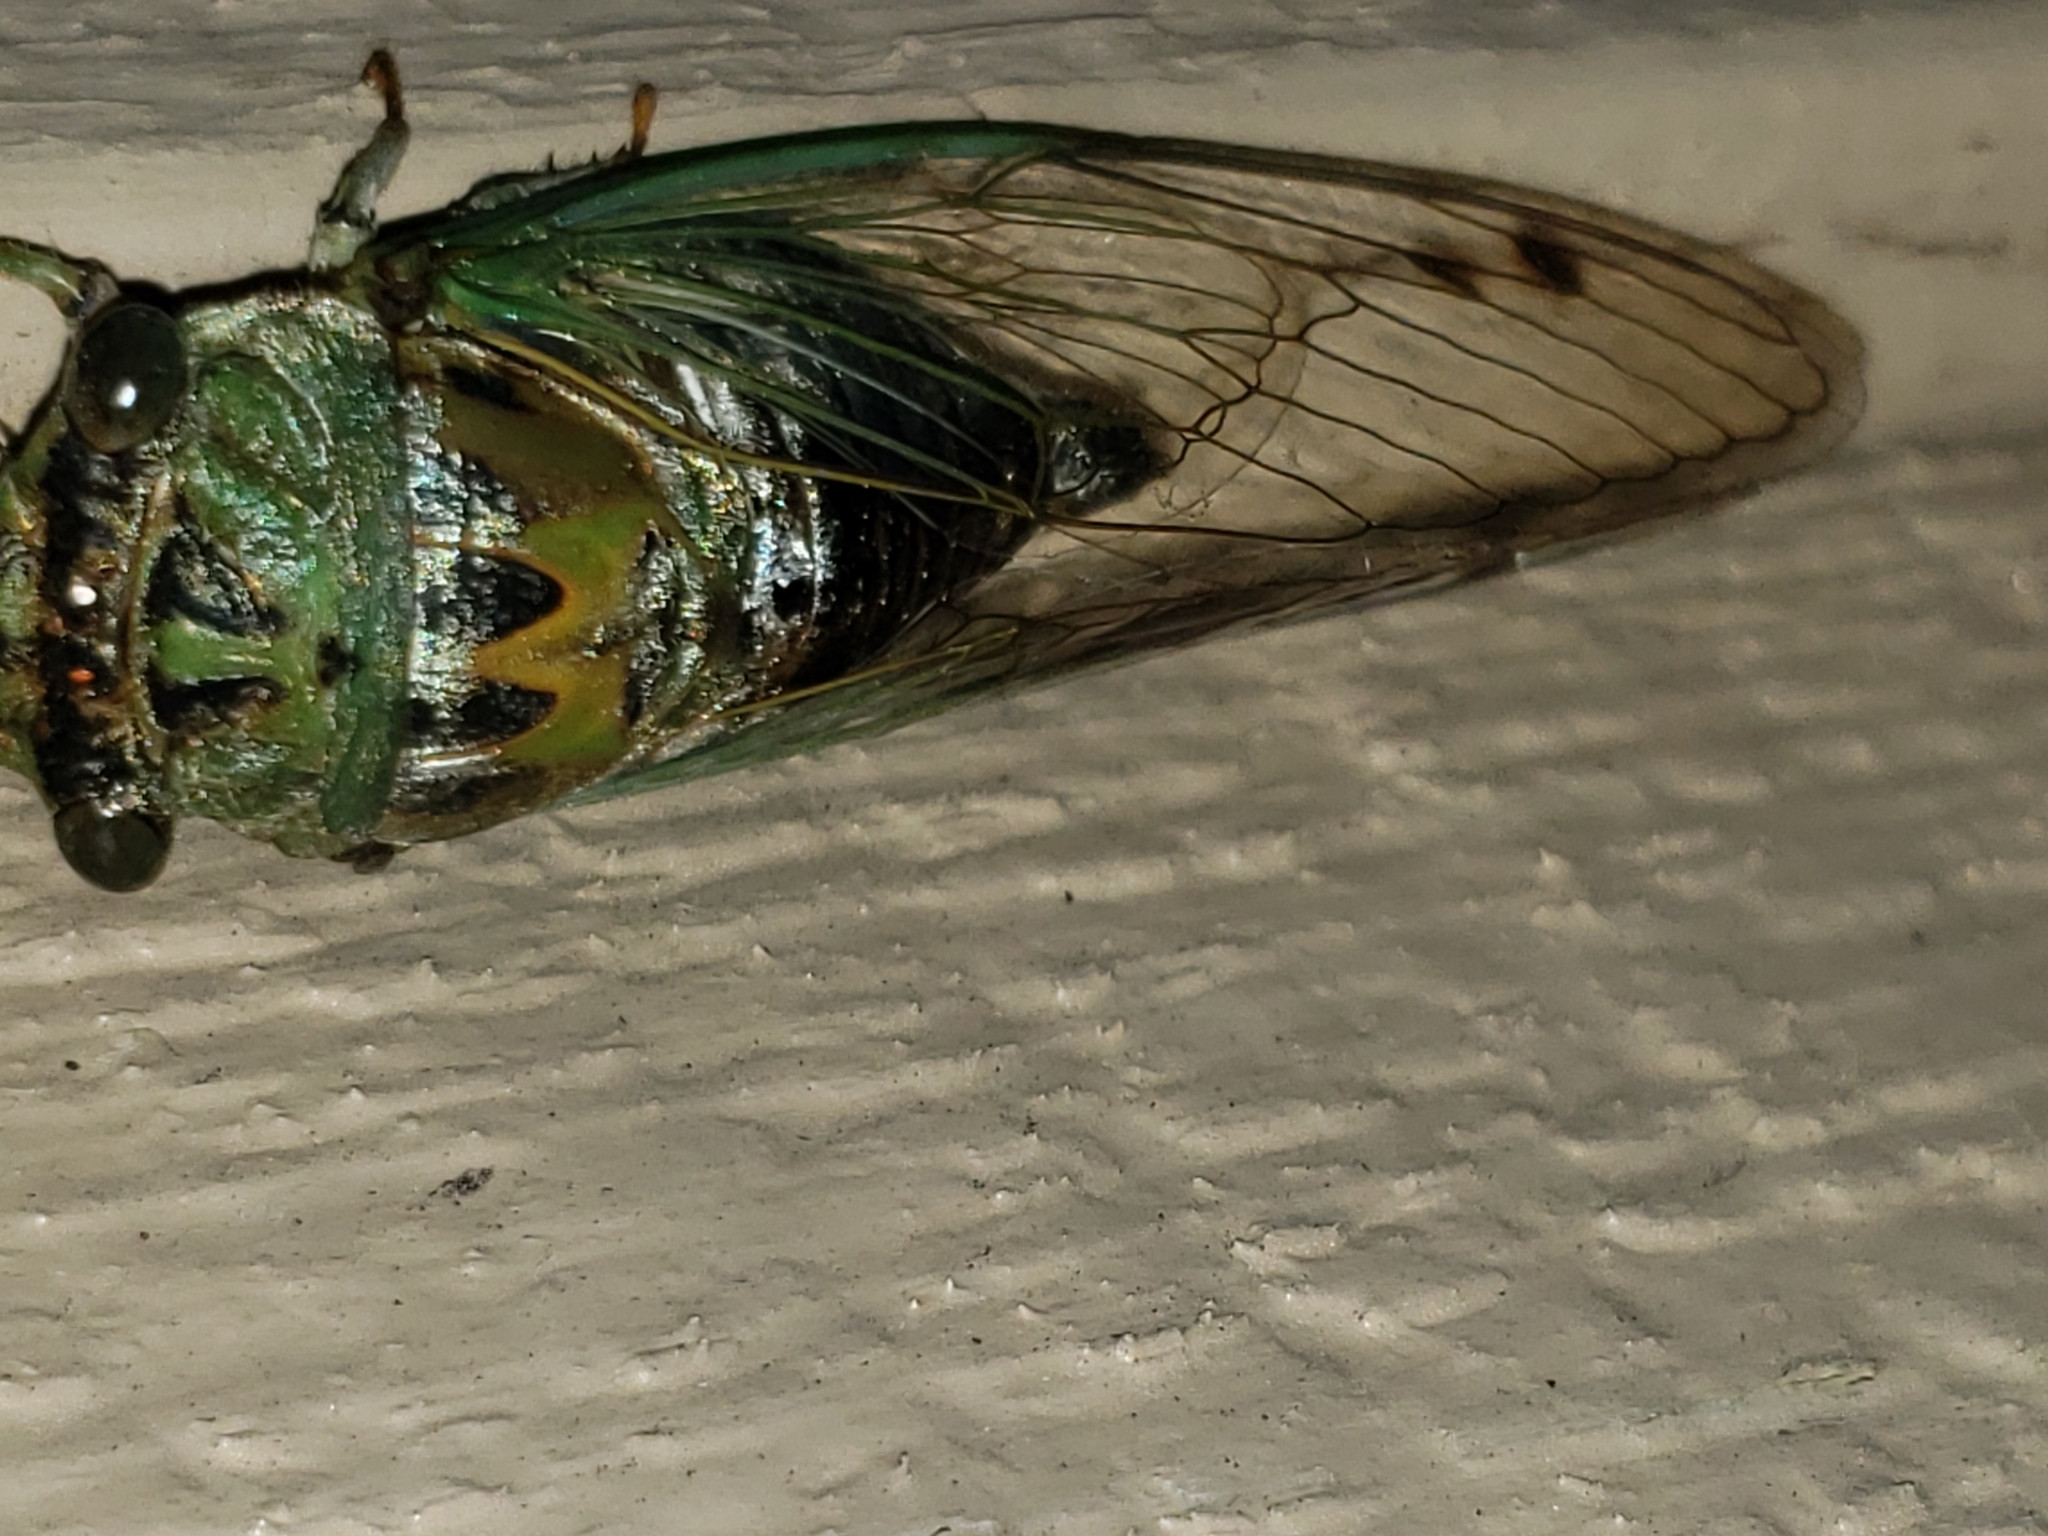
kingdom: Animalia
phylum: Arthropoda
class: Insecta
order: Hemiptera
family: Cicadidae
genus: Neotibicen
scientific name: Neotibicen winnemanna
